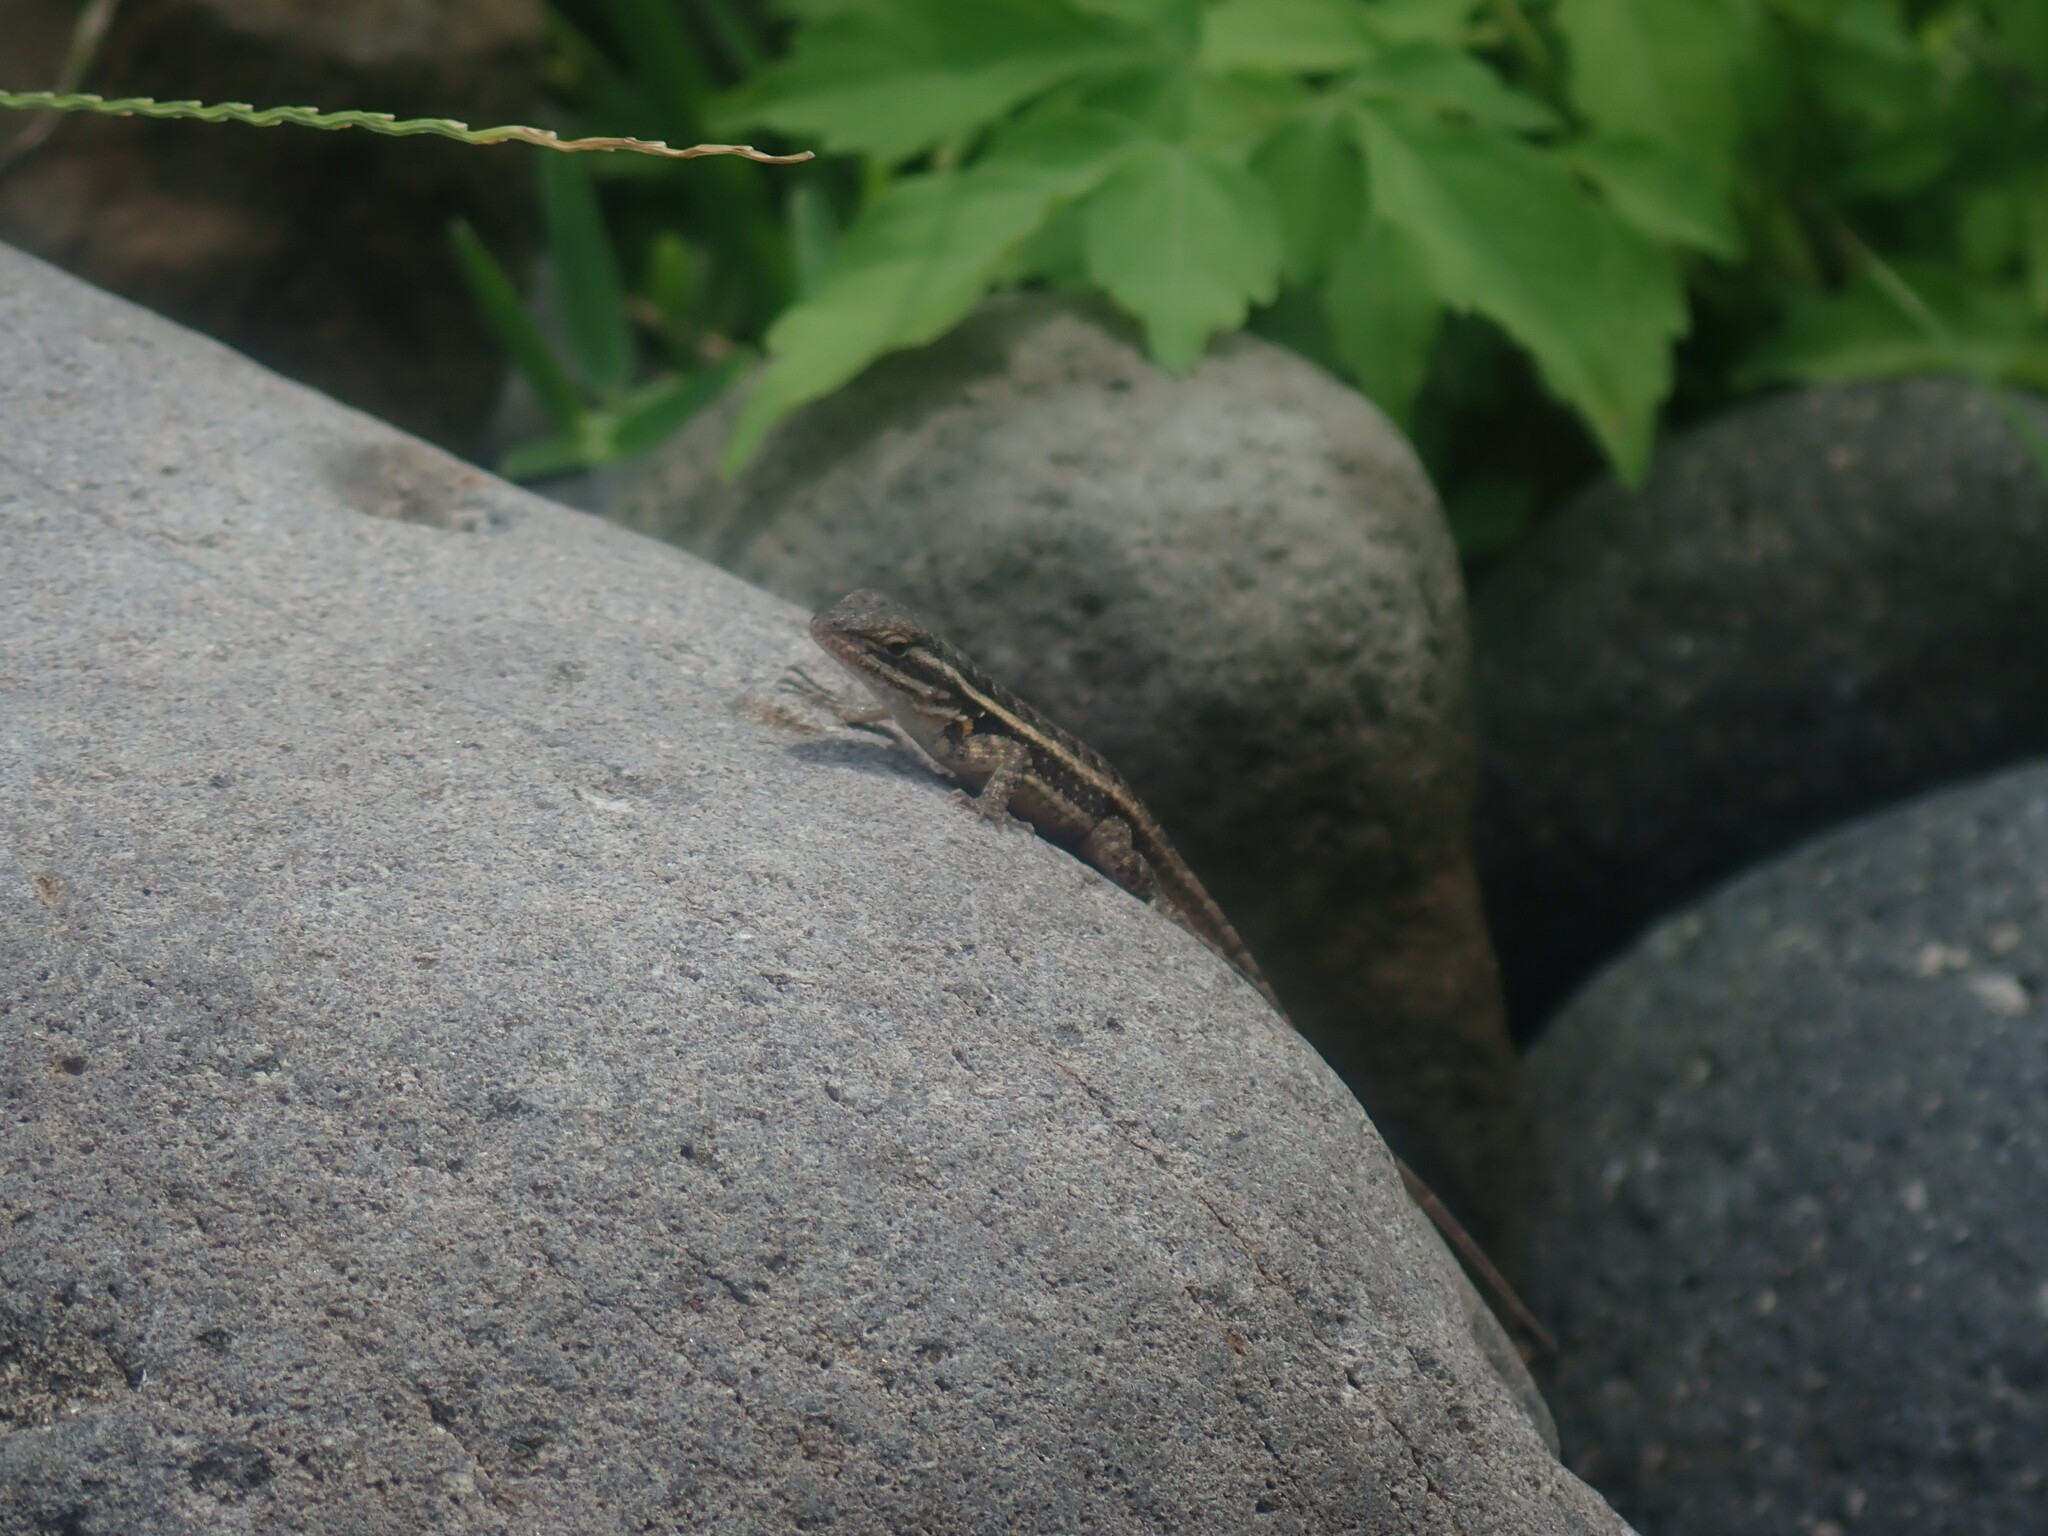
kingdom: Animalia
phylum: Chordata
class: Squamata
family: Phrynosomatidae
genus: Sceloporus
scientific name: Sceloporus variabilis
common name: Rosebelly lizard
